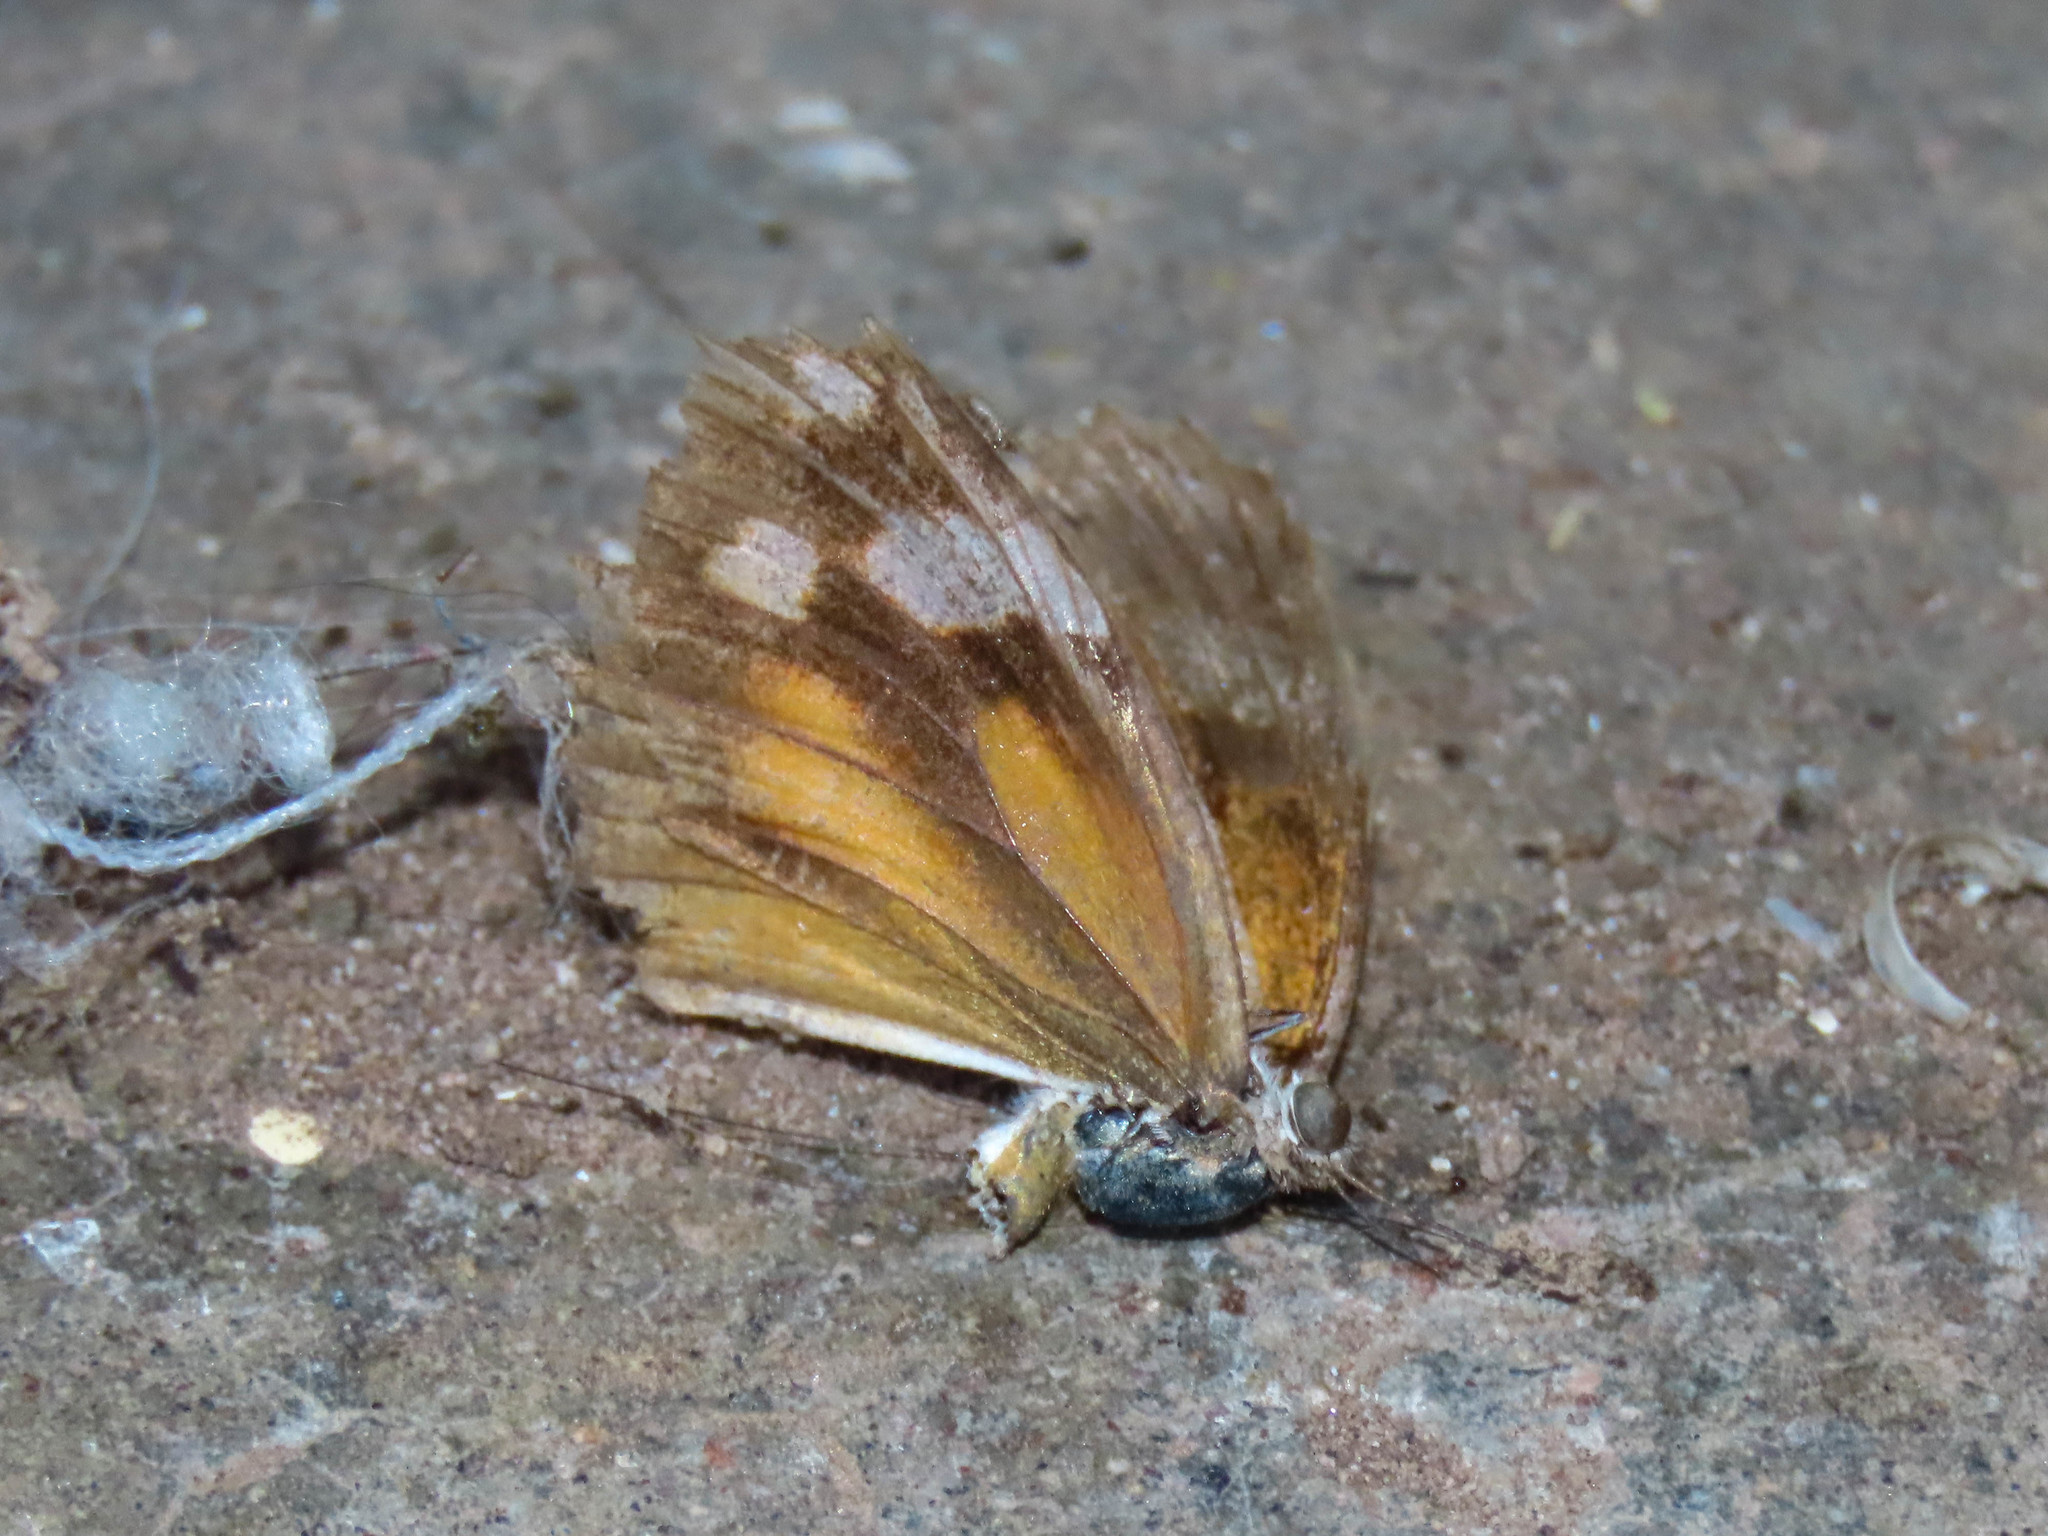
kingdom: Animalia
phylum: Arthropoda
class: Insecta
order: Lepidoptera
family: Nymphalidae
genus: Libytheana
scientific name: Libytheana carinenta
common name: American snout
